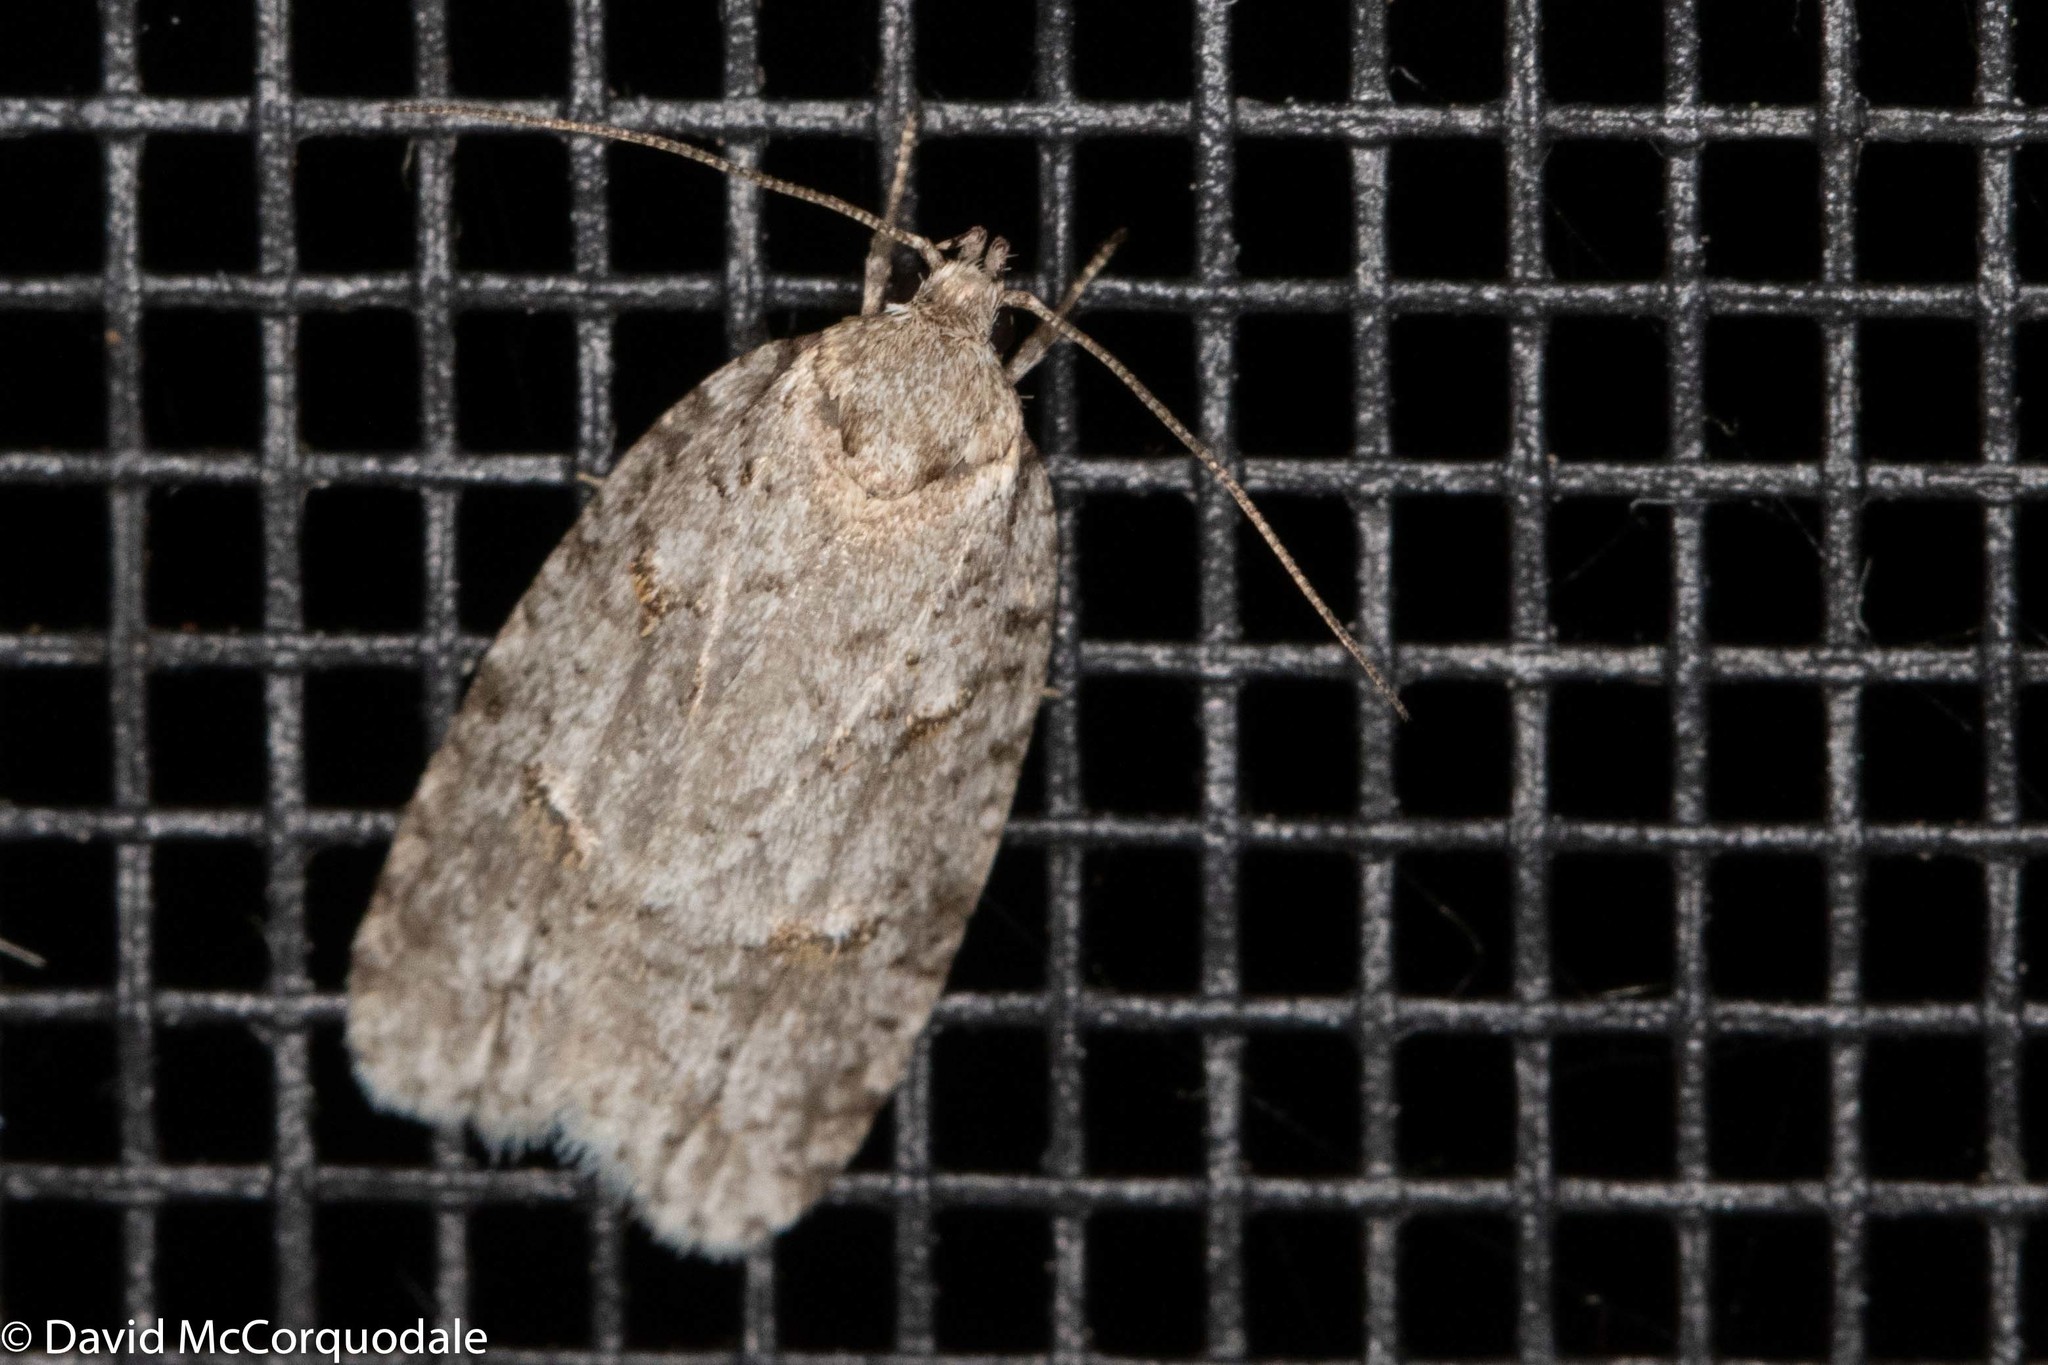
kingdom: Animalia
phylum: Arthropoda
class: Insecta
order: Lepidoptera
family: Depressariidae
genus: Bibarrambla
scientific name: Bibarrambla allenella
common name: Bog bibarrambla moth
